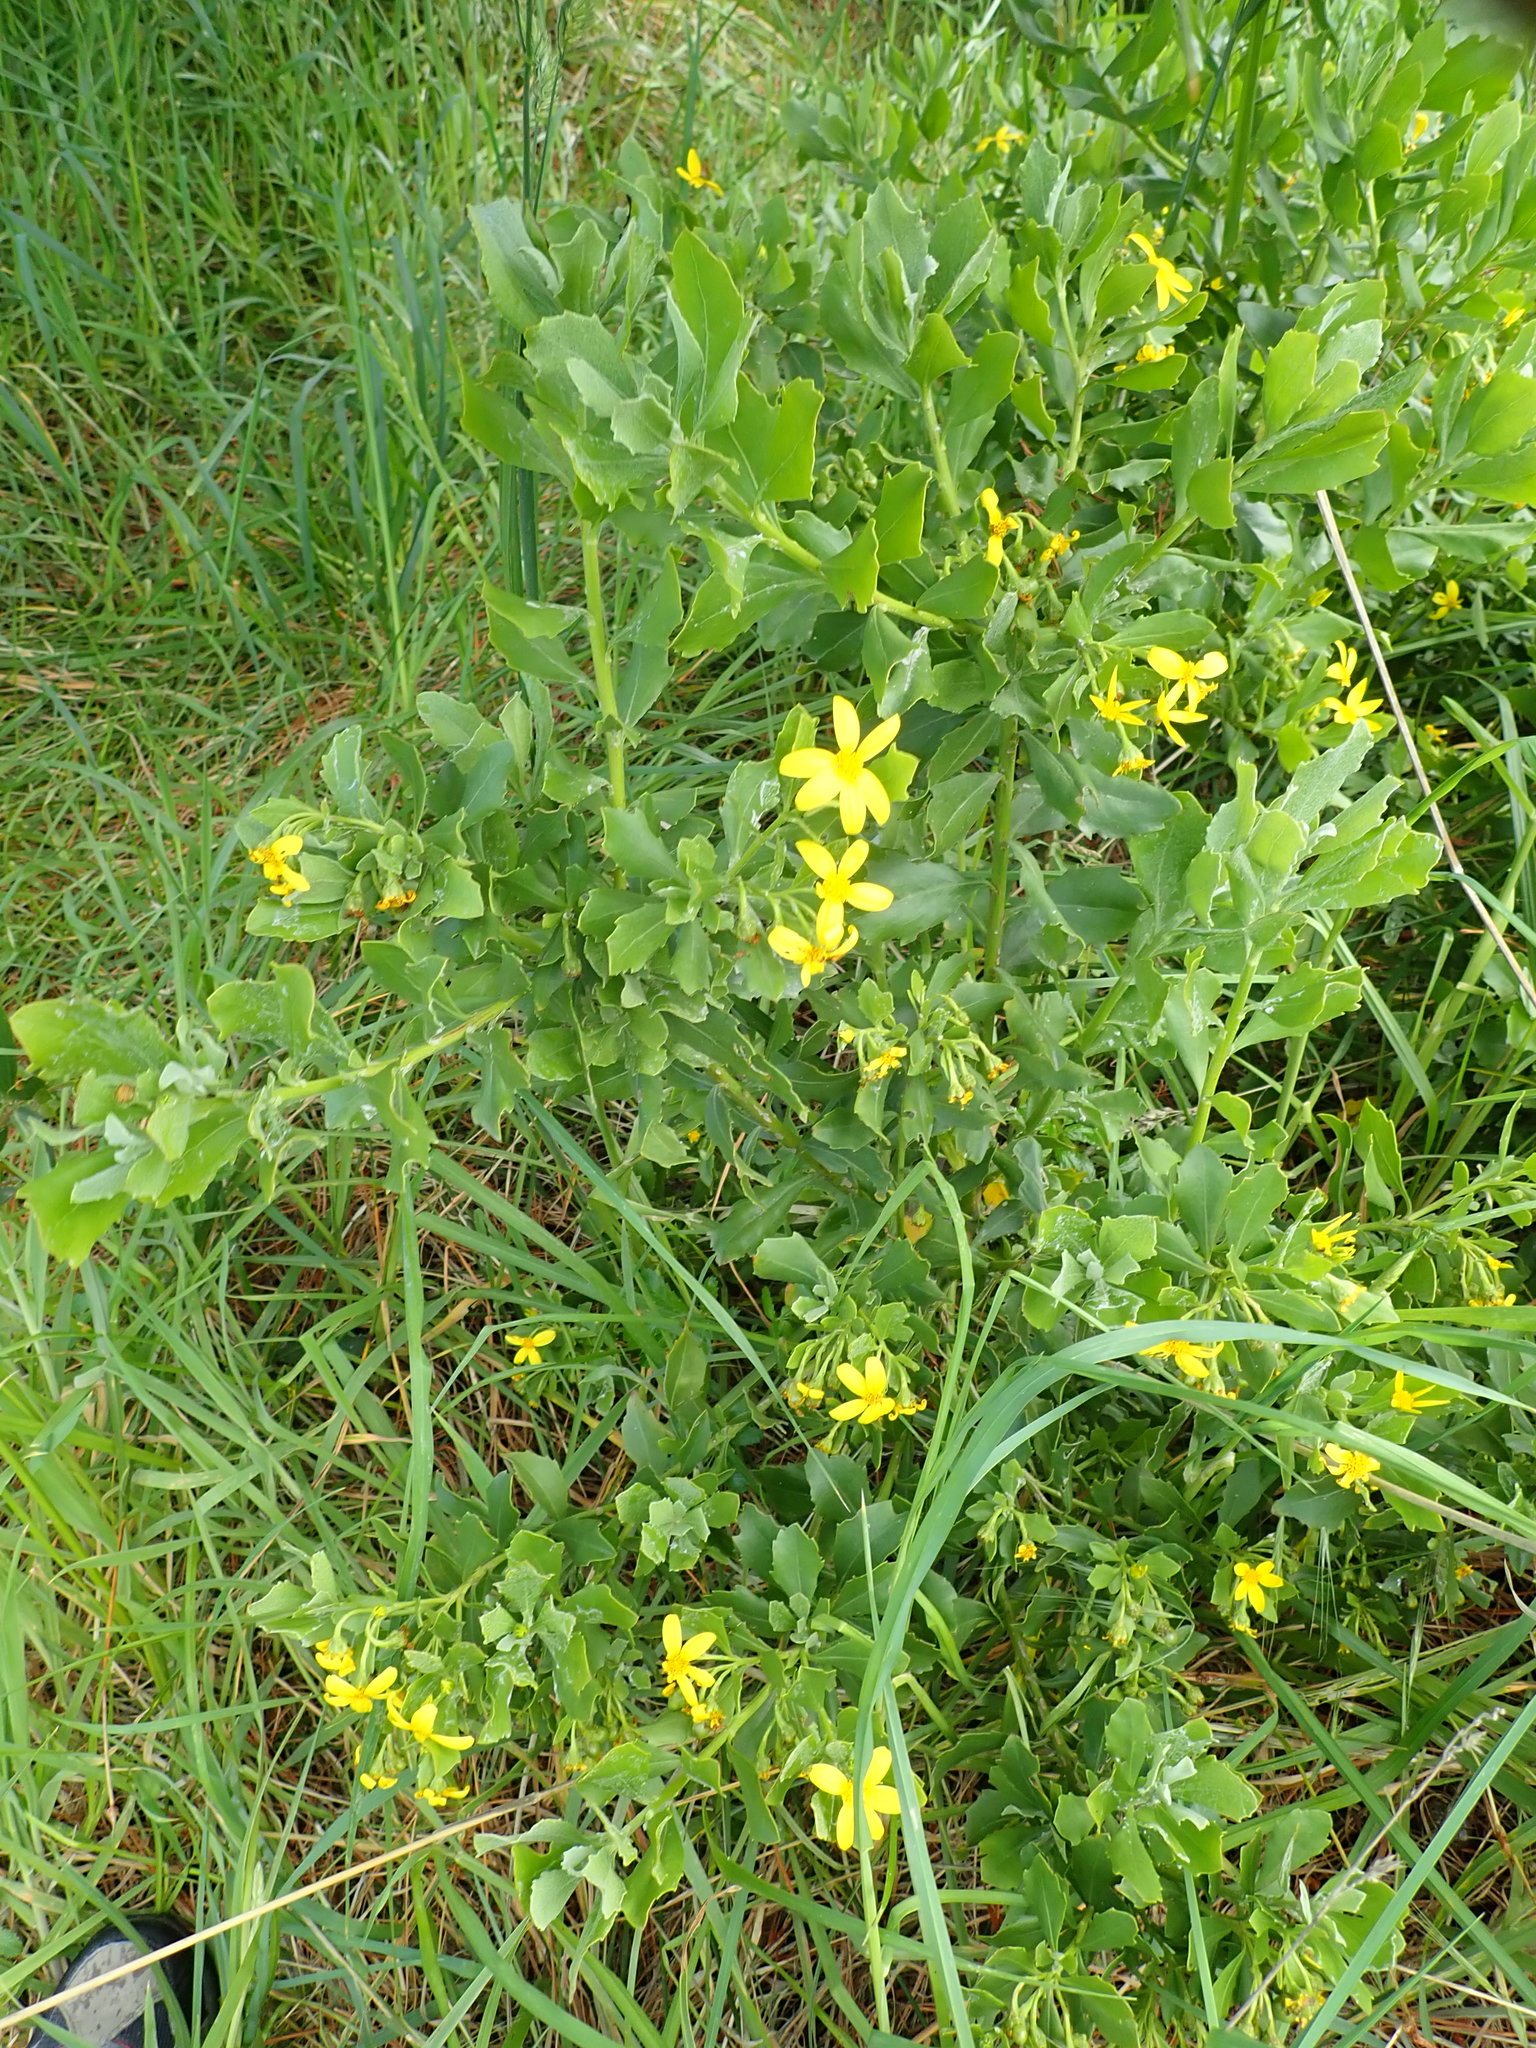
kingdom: Plantae
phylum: Tracheophyta
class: Magnoliopsida
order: Asterales
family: Asteraceae
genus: Osteospermum
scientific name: Osteospermum moniliferum
